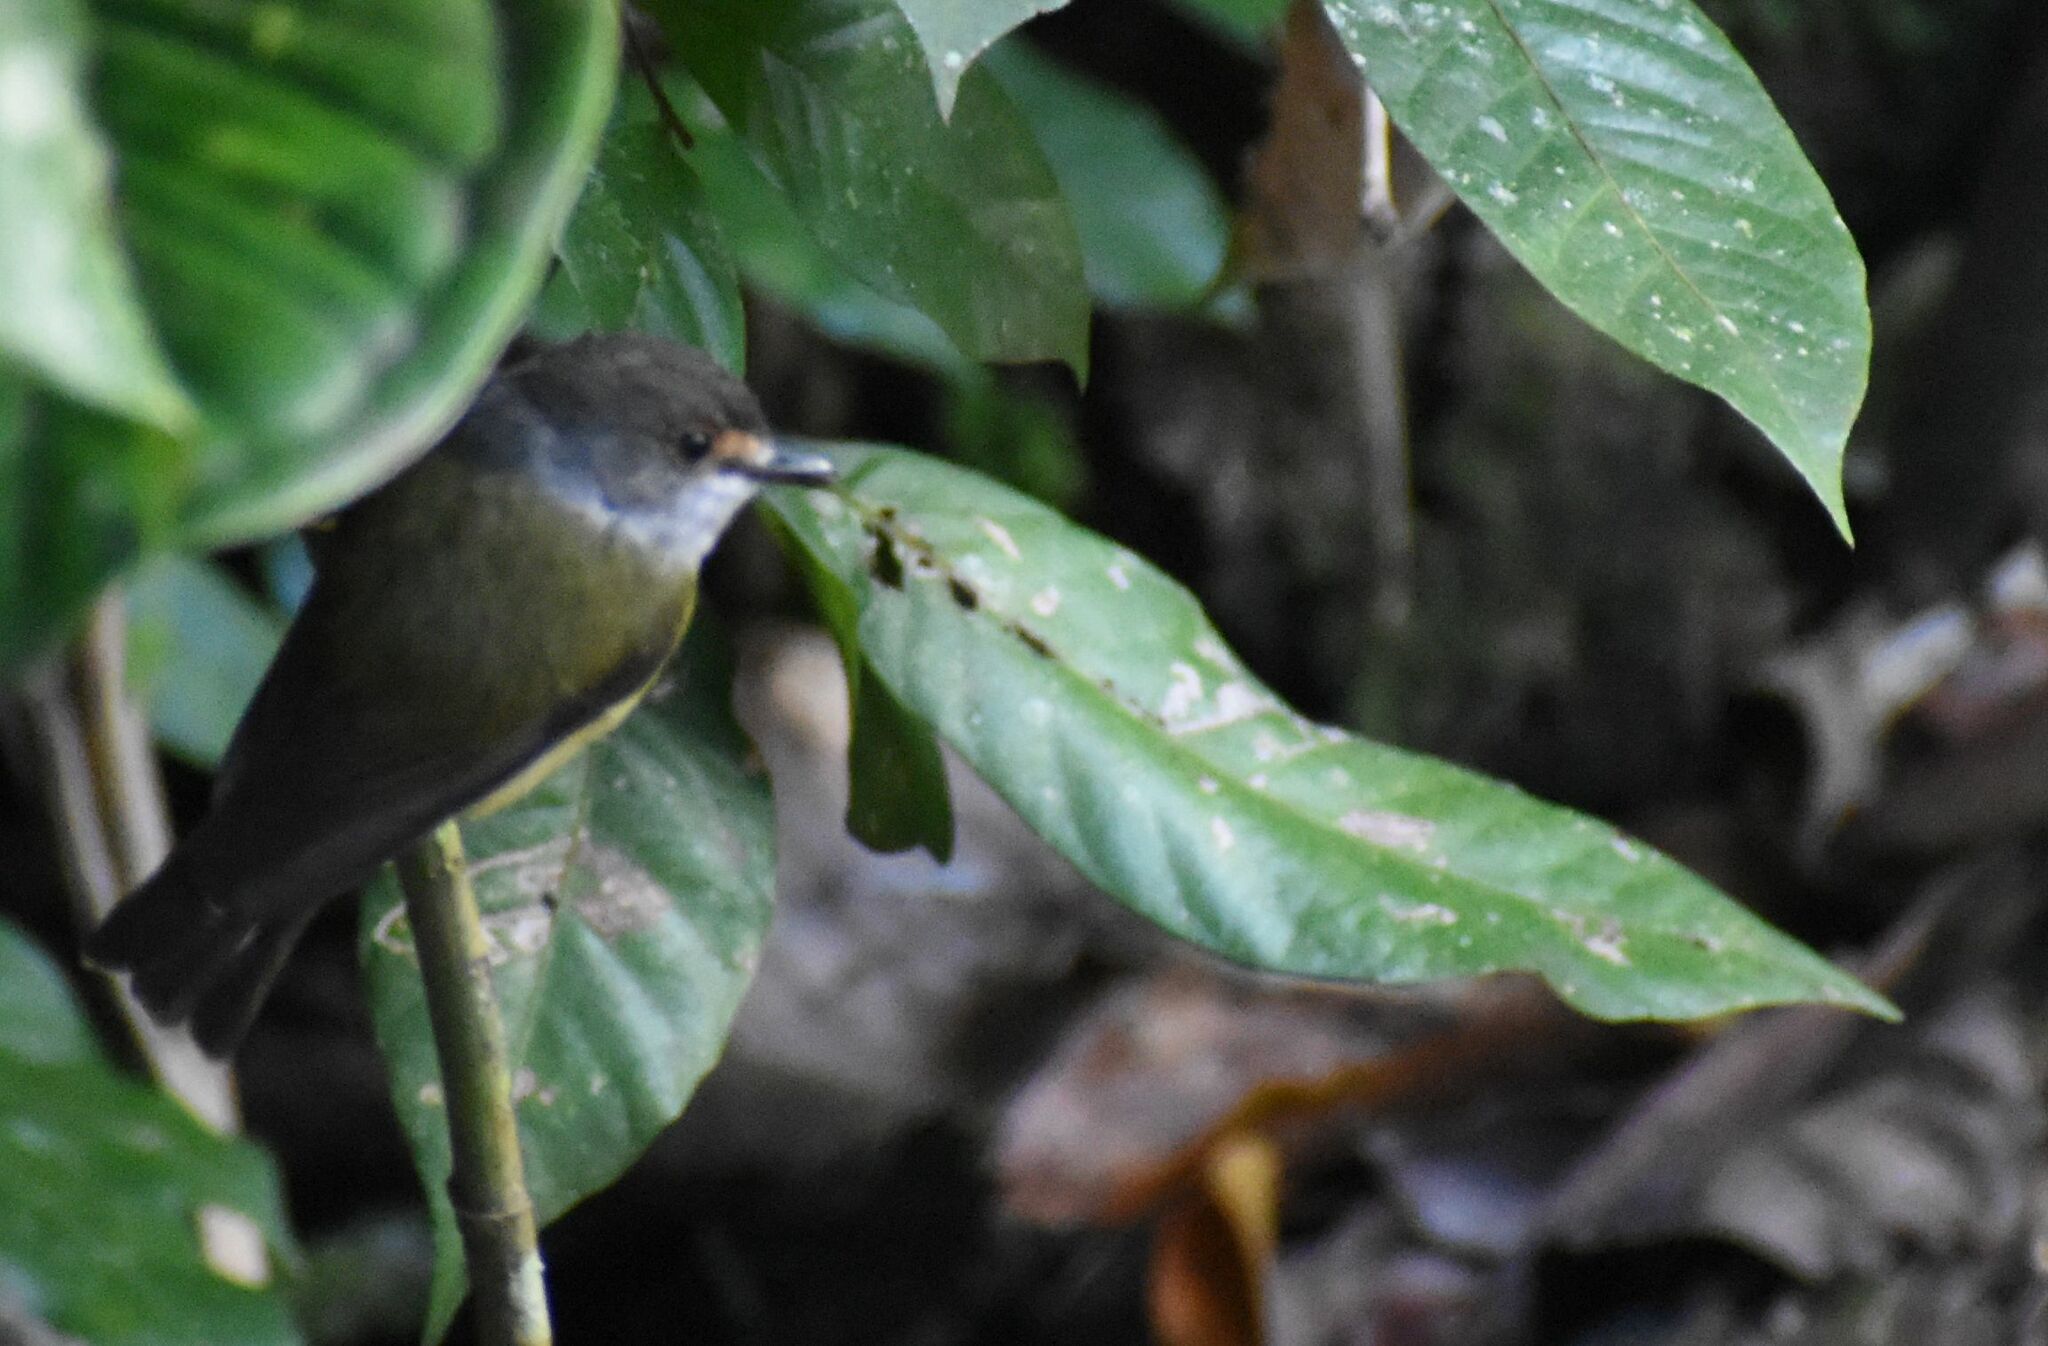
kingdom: Animalia
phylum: Chordata
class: Aves
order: Passeriformes
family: Petroicidae
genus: Eopsaltria
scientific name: Eopsaltria
